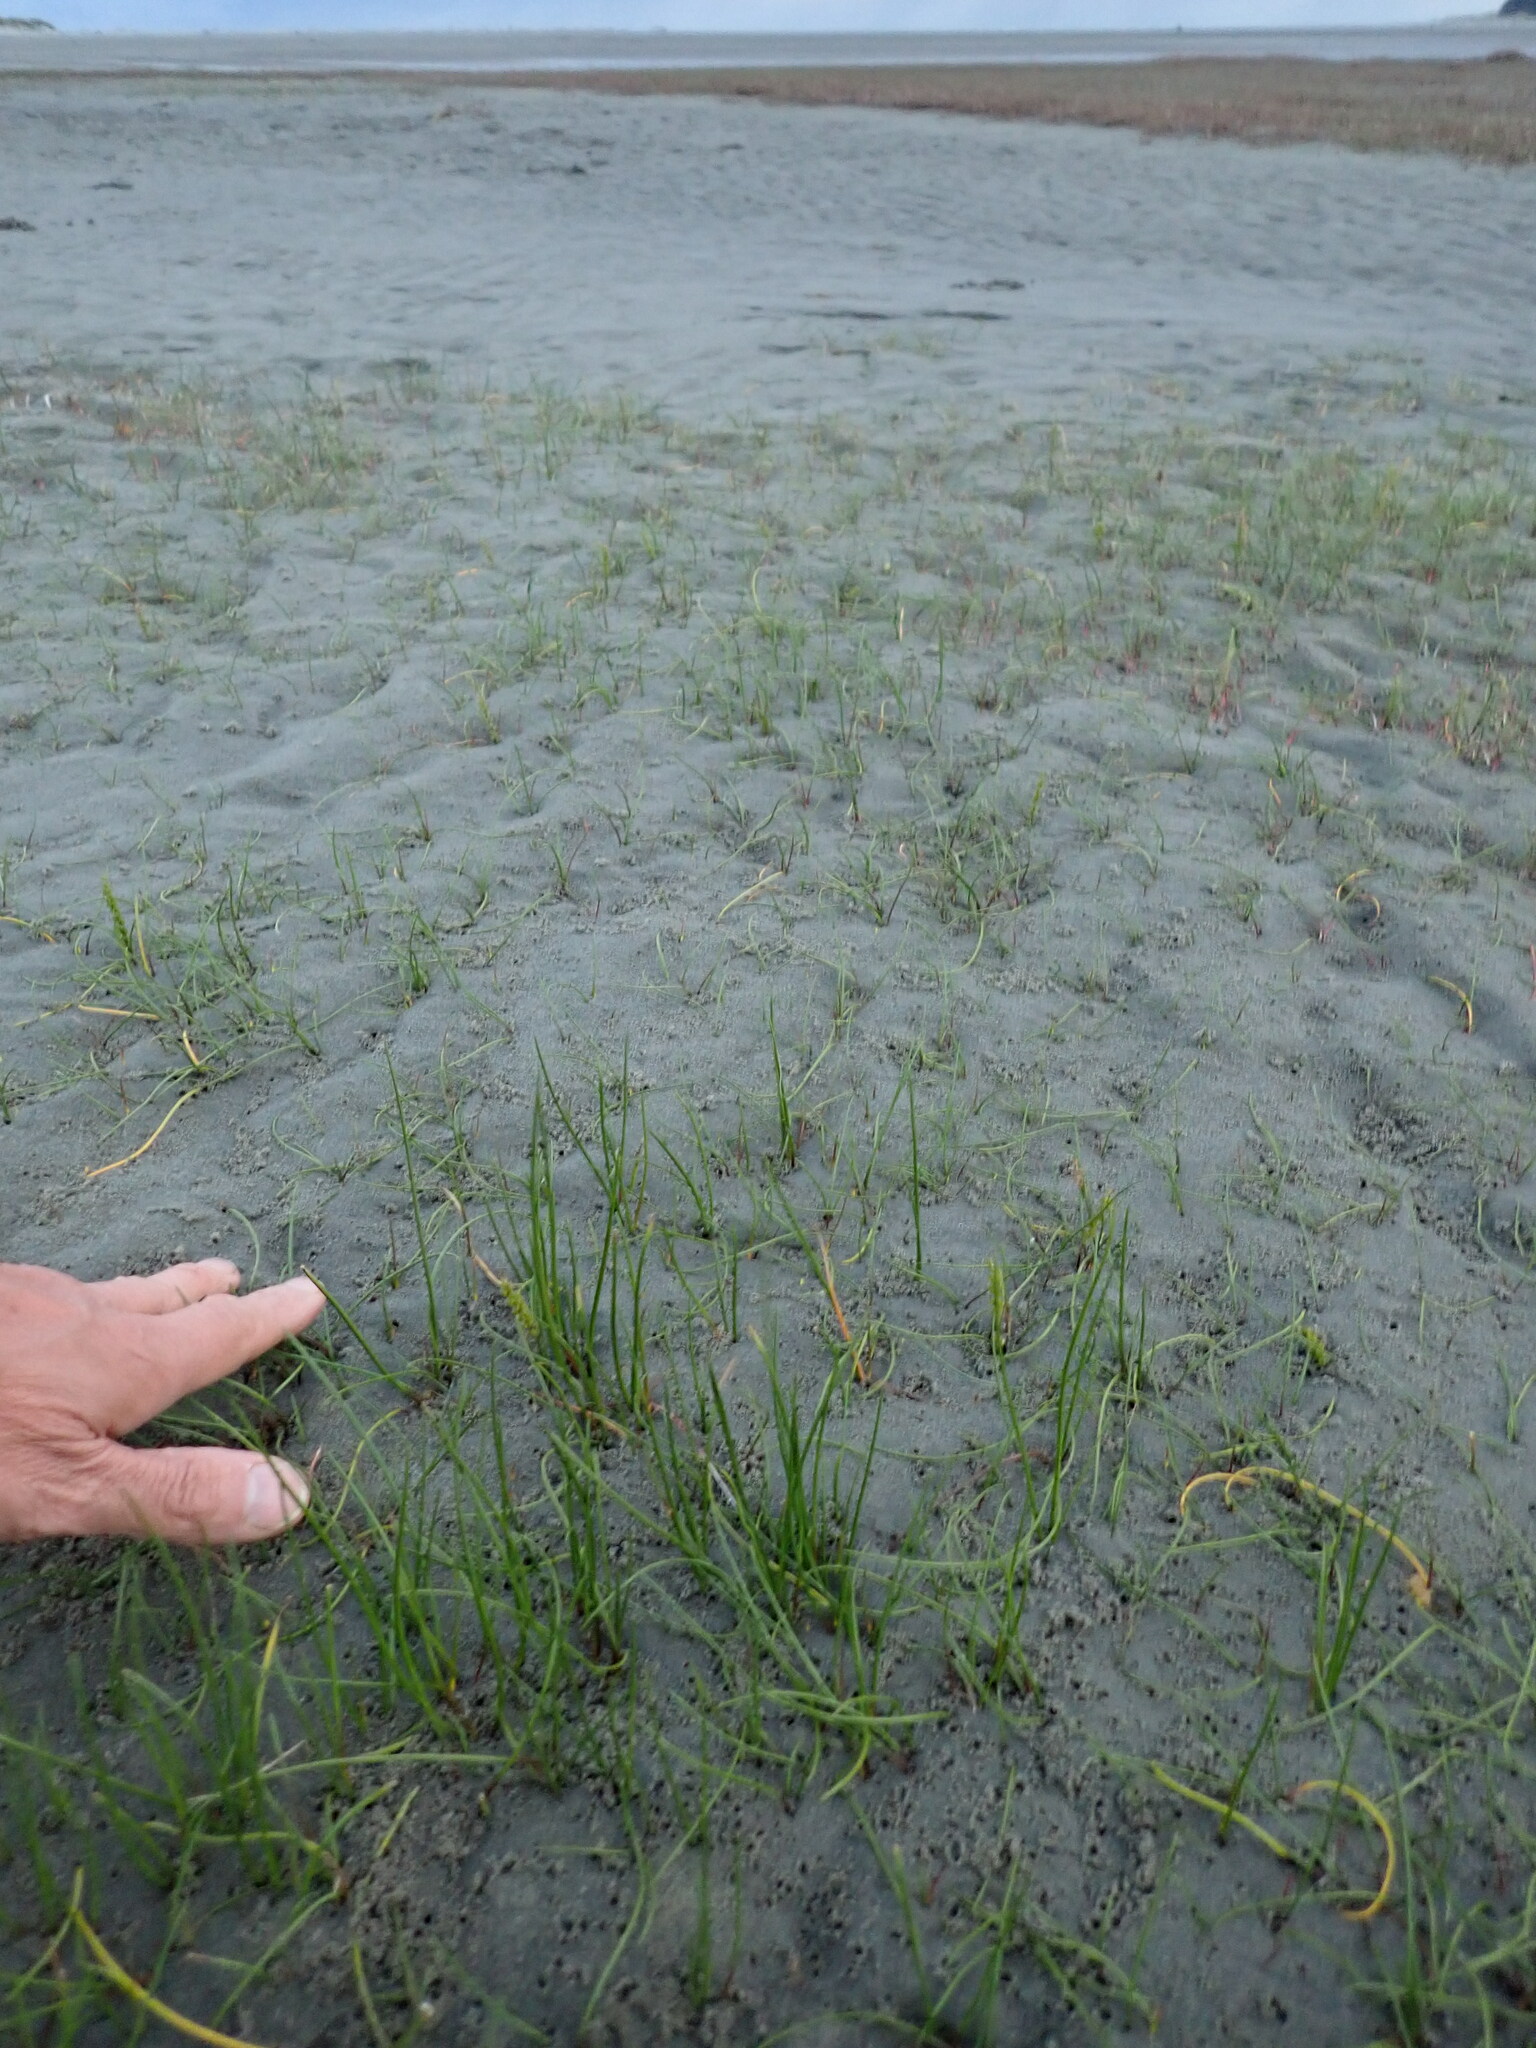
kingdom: Plantae
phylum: Tracheophyta
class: Liliopsida
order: Alismatales
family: Juncaginaceae
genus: Triglochin
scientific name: Triglochin striata
